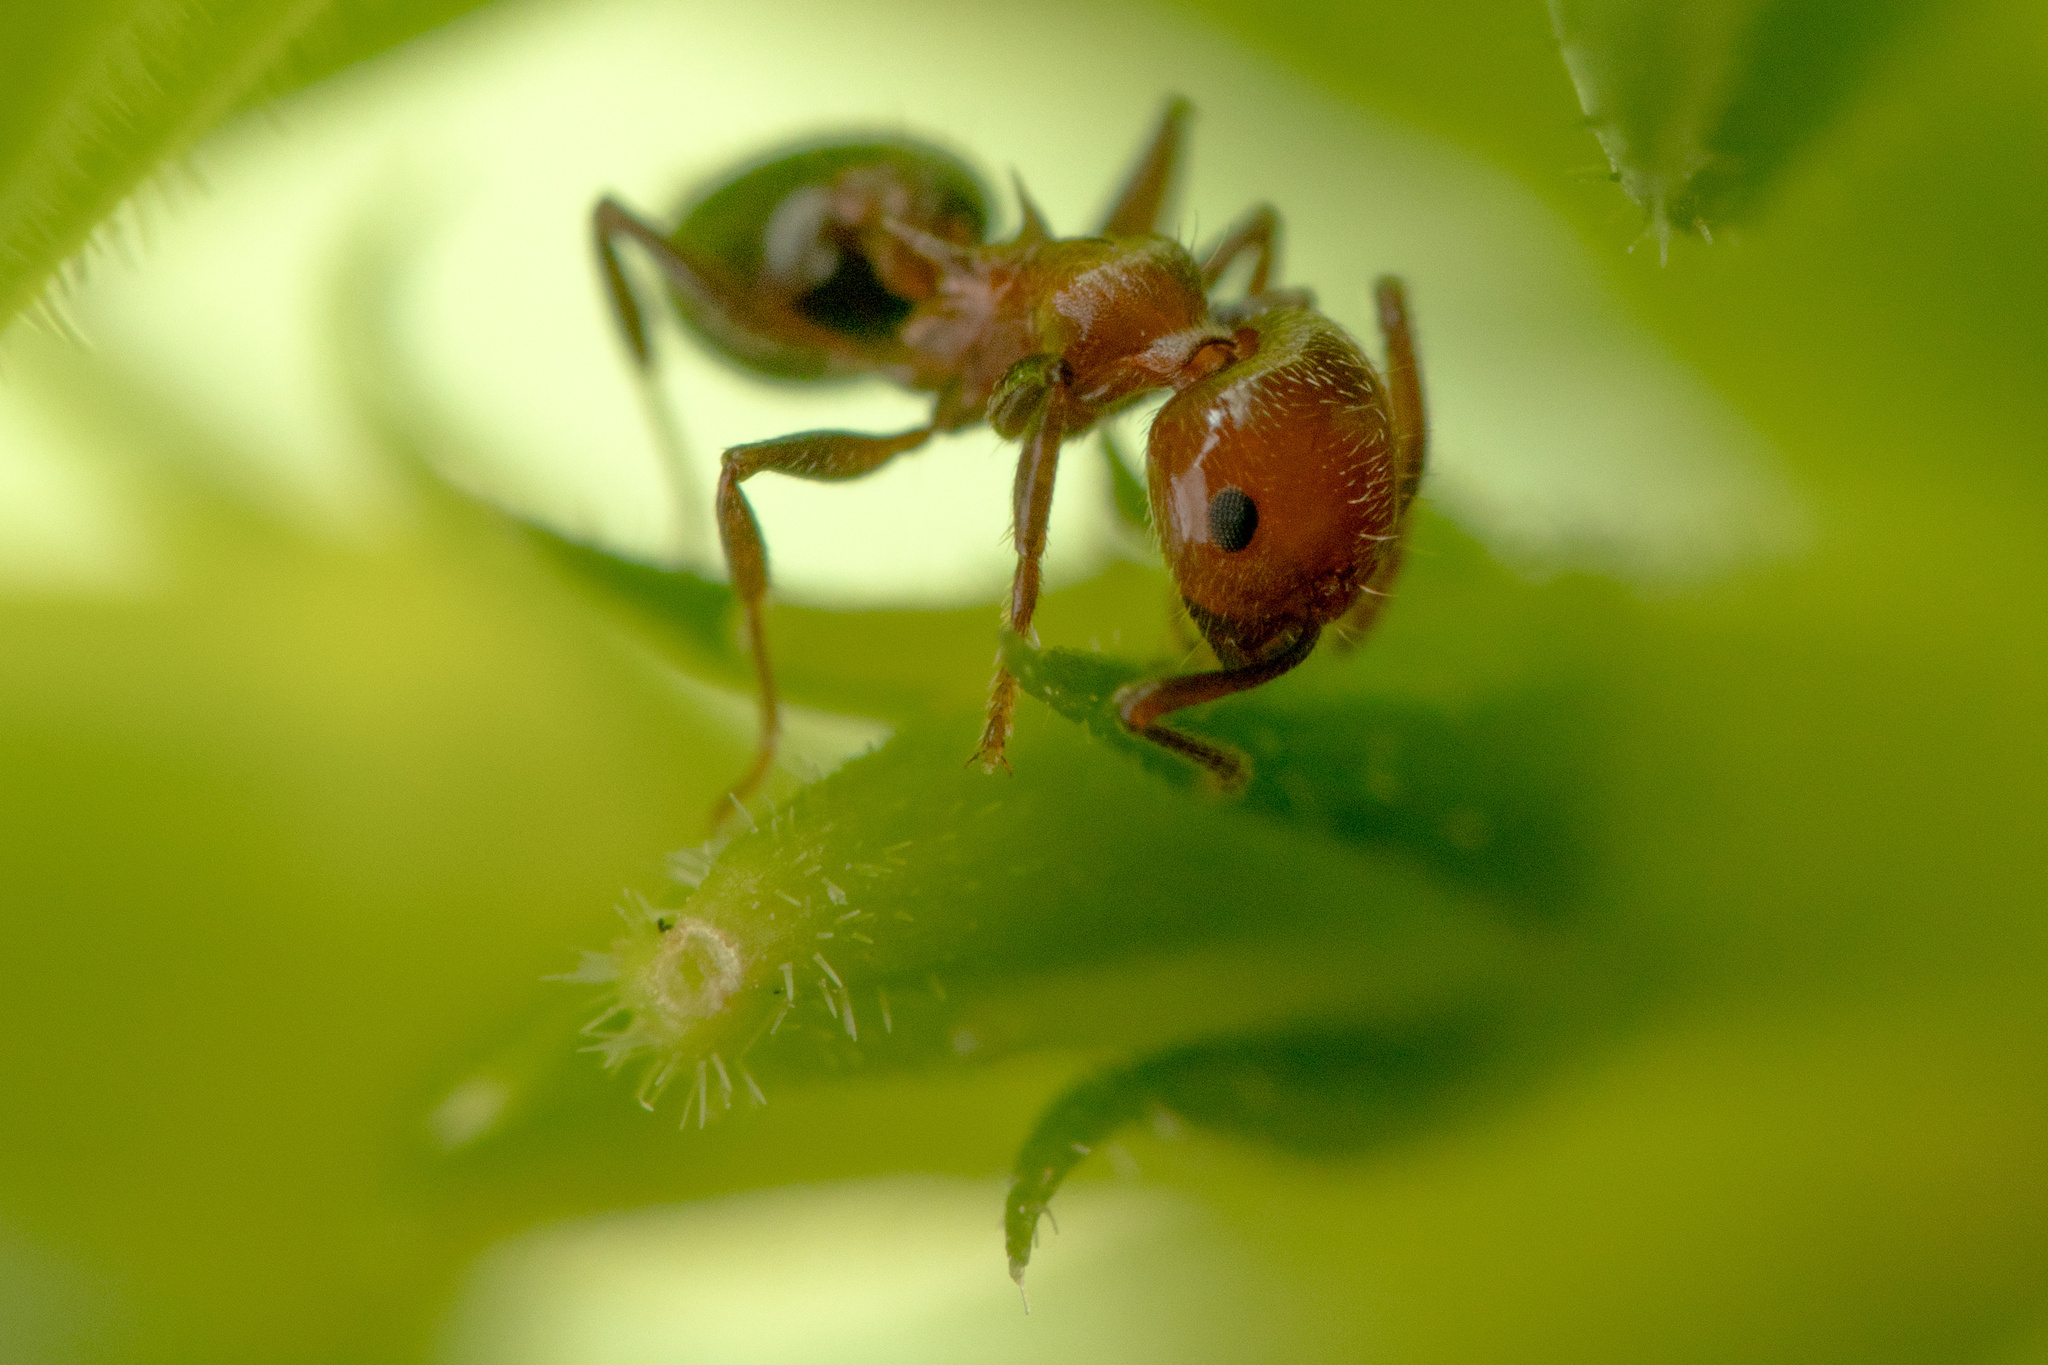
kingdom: Animalia
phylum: Arthropoda
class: Insecta
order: Hymenoptera
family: Formicidae
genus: Crematogaster
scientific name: Crematogaster laeviuscula
